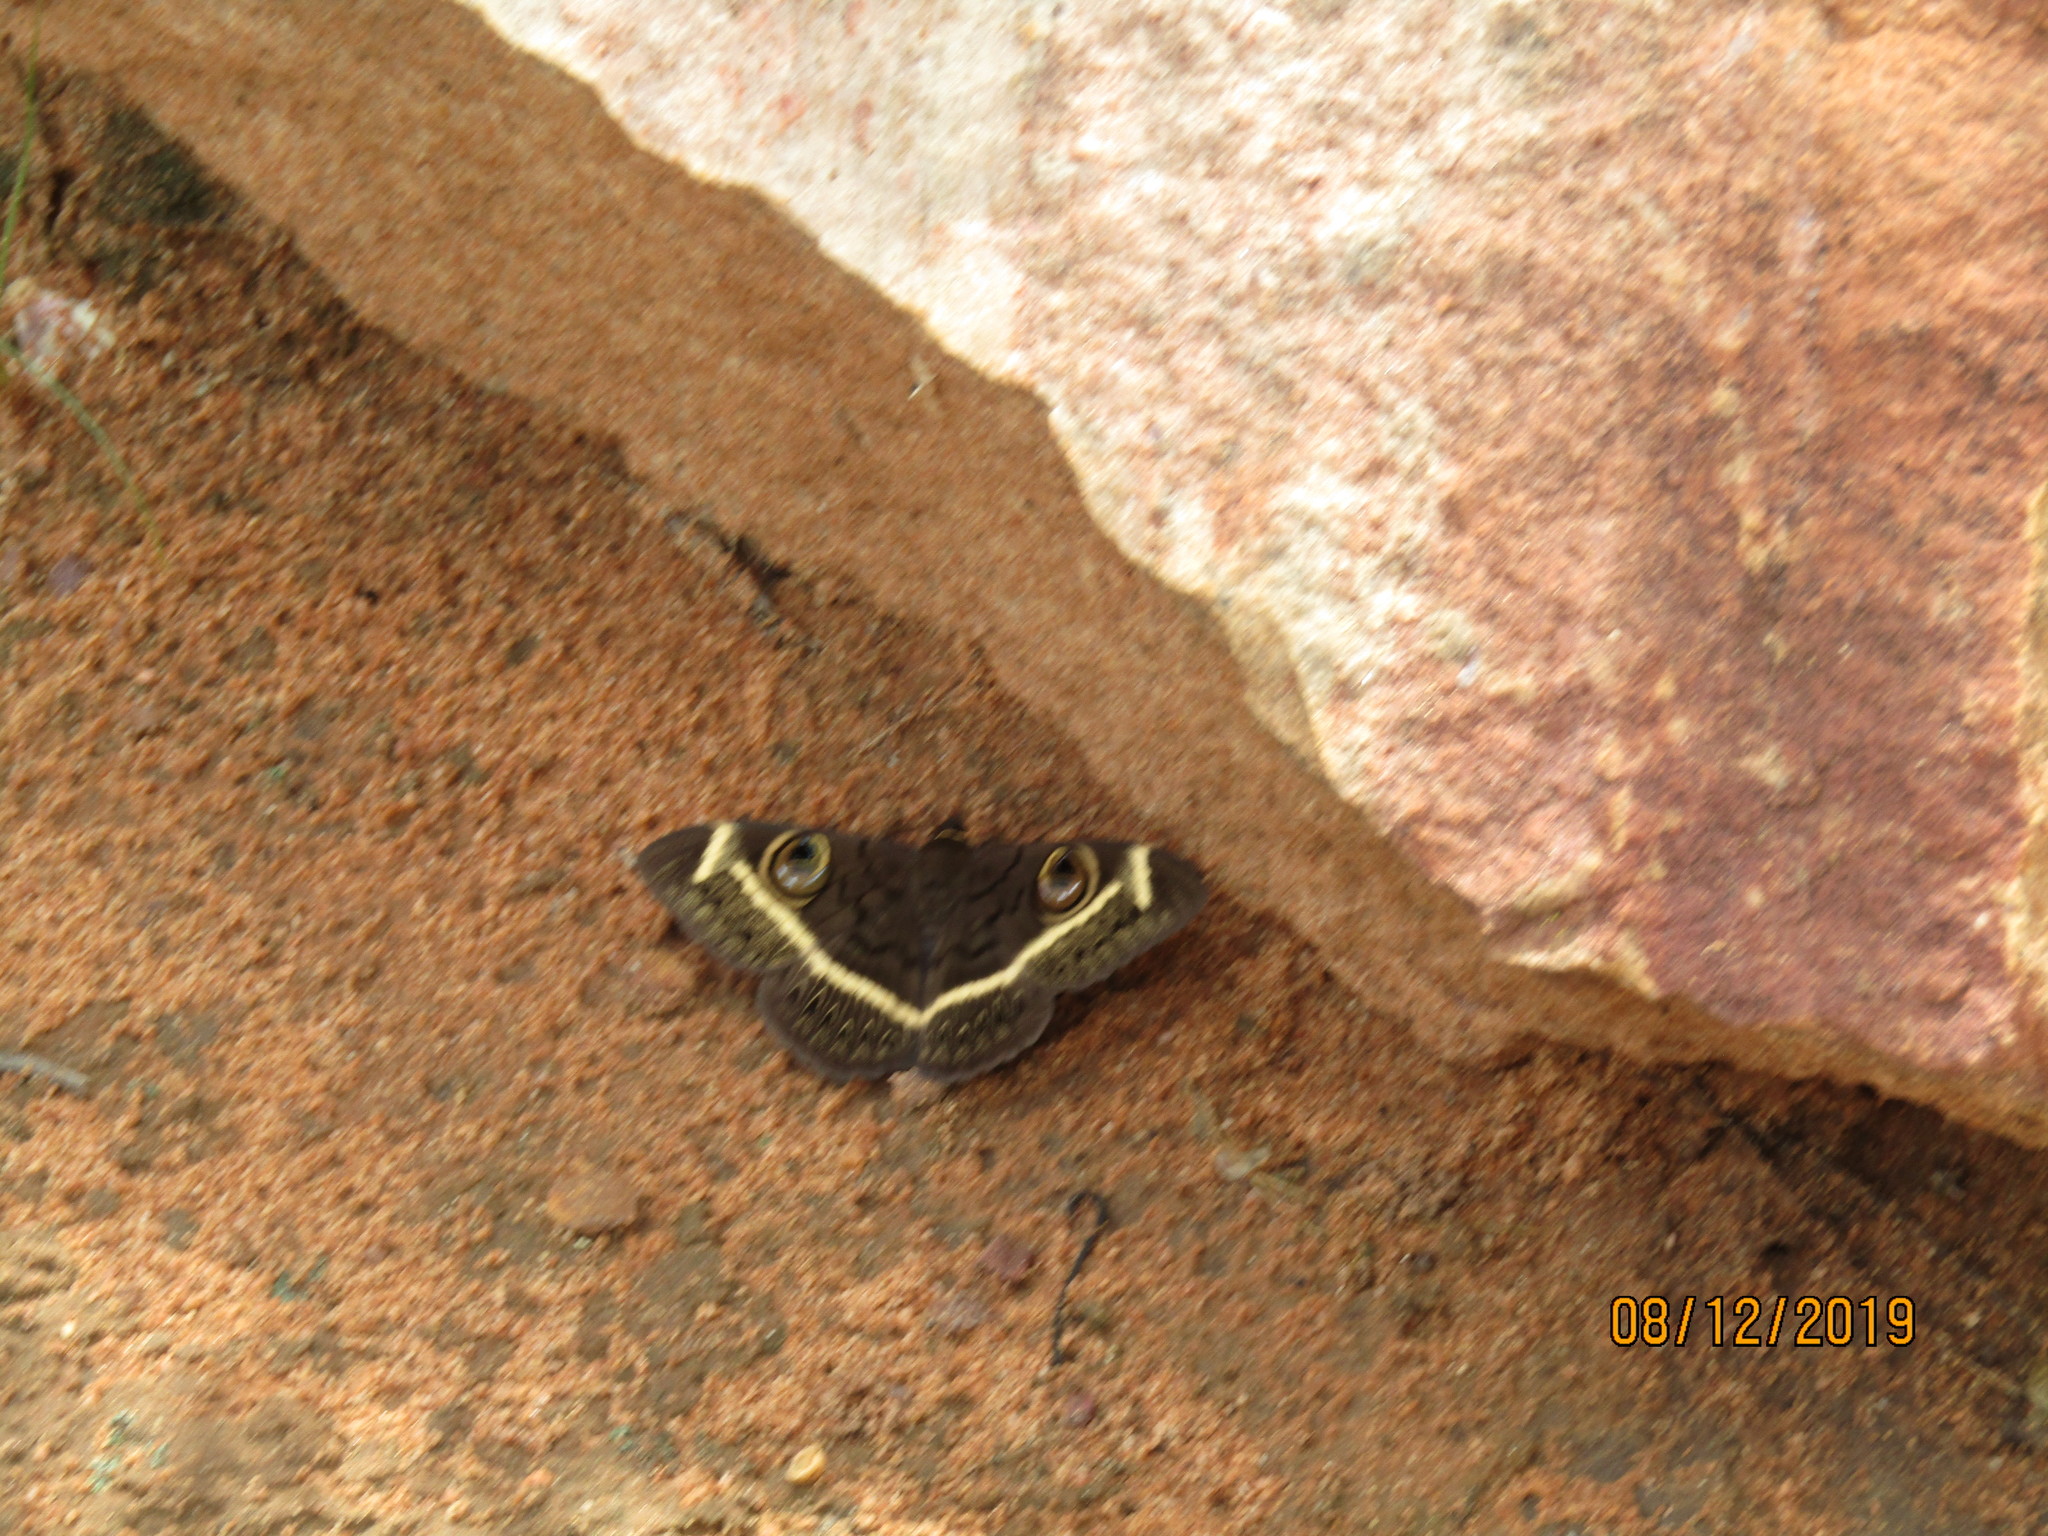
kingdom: Animalia
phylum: Arthropoda
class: Insecta
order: Lepidoptera
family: Erebidae
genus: Cyligramma
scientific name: Cyligramma latona
